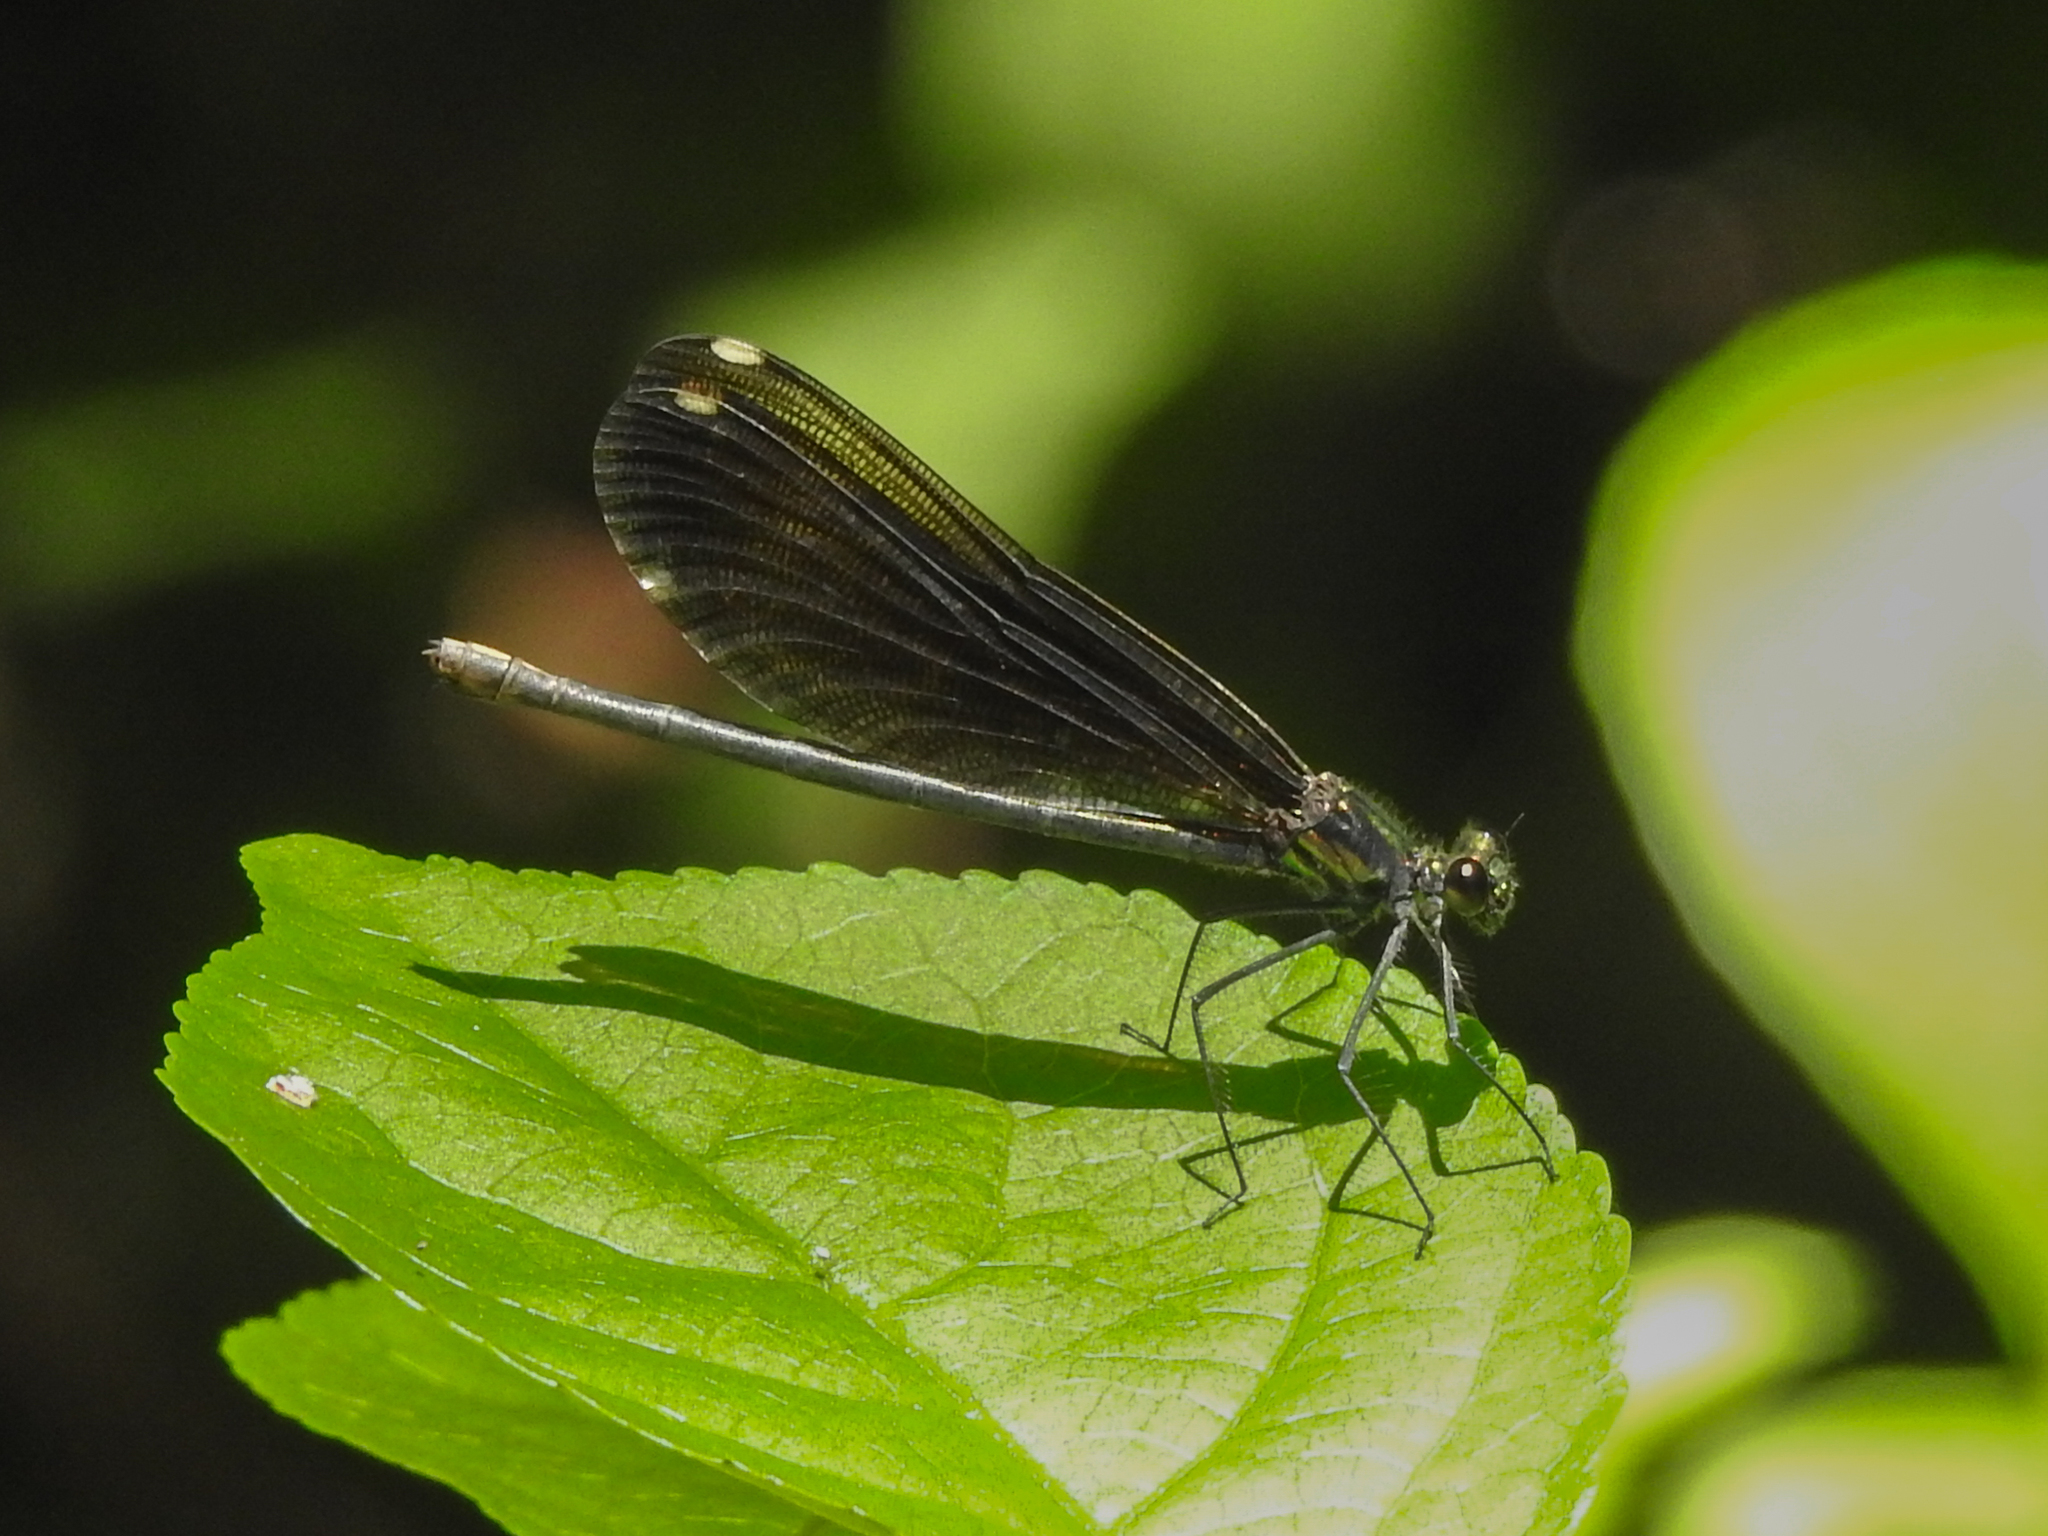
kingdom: Animalia
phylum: Arthropoda
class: Insecta
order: Odonata
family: Calopterygidae
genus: Calopteryx
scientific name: Calopteryx maculata
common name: Ebony jewelwing
